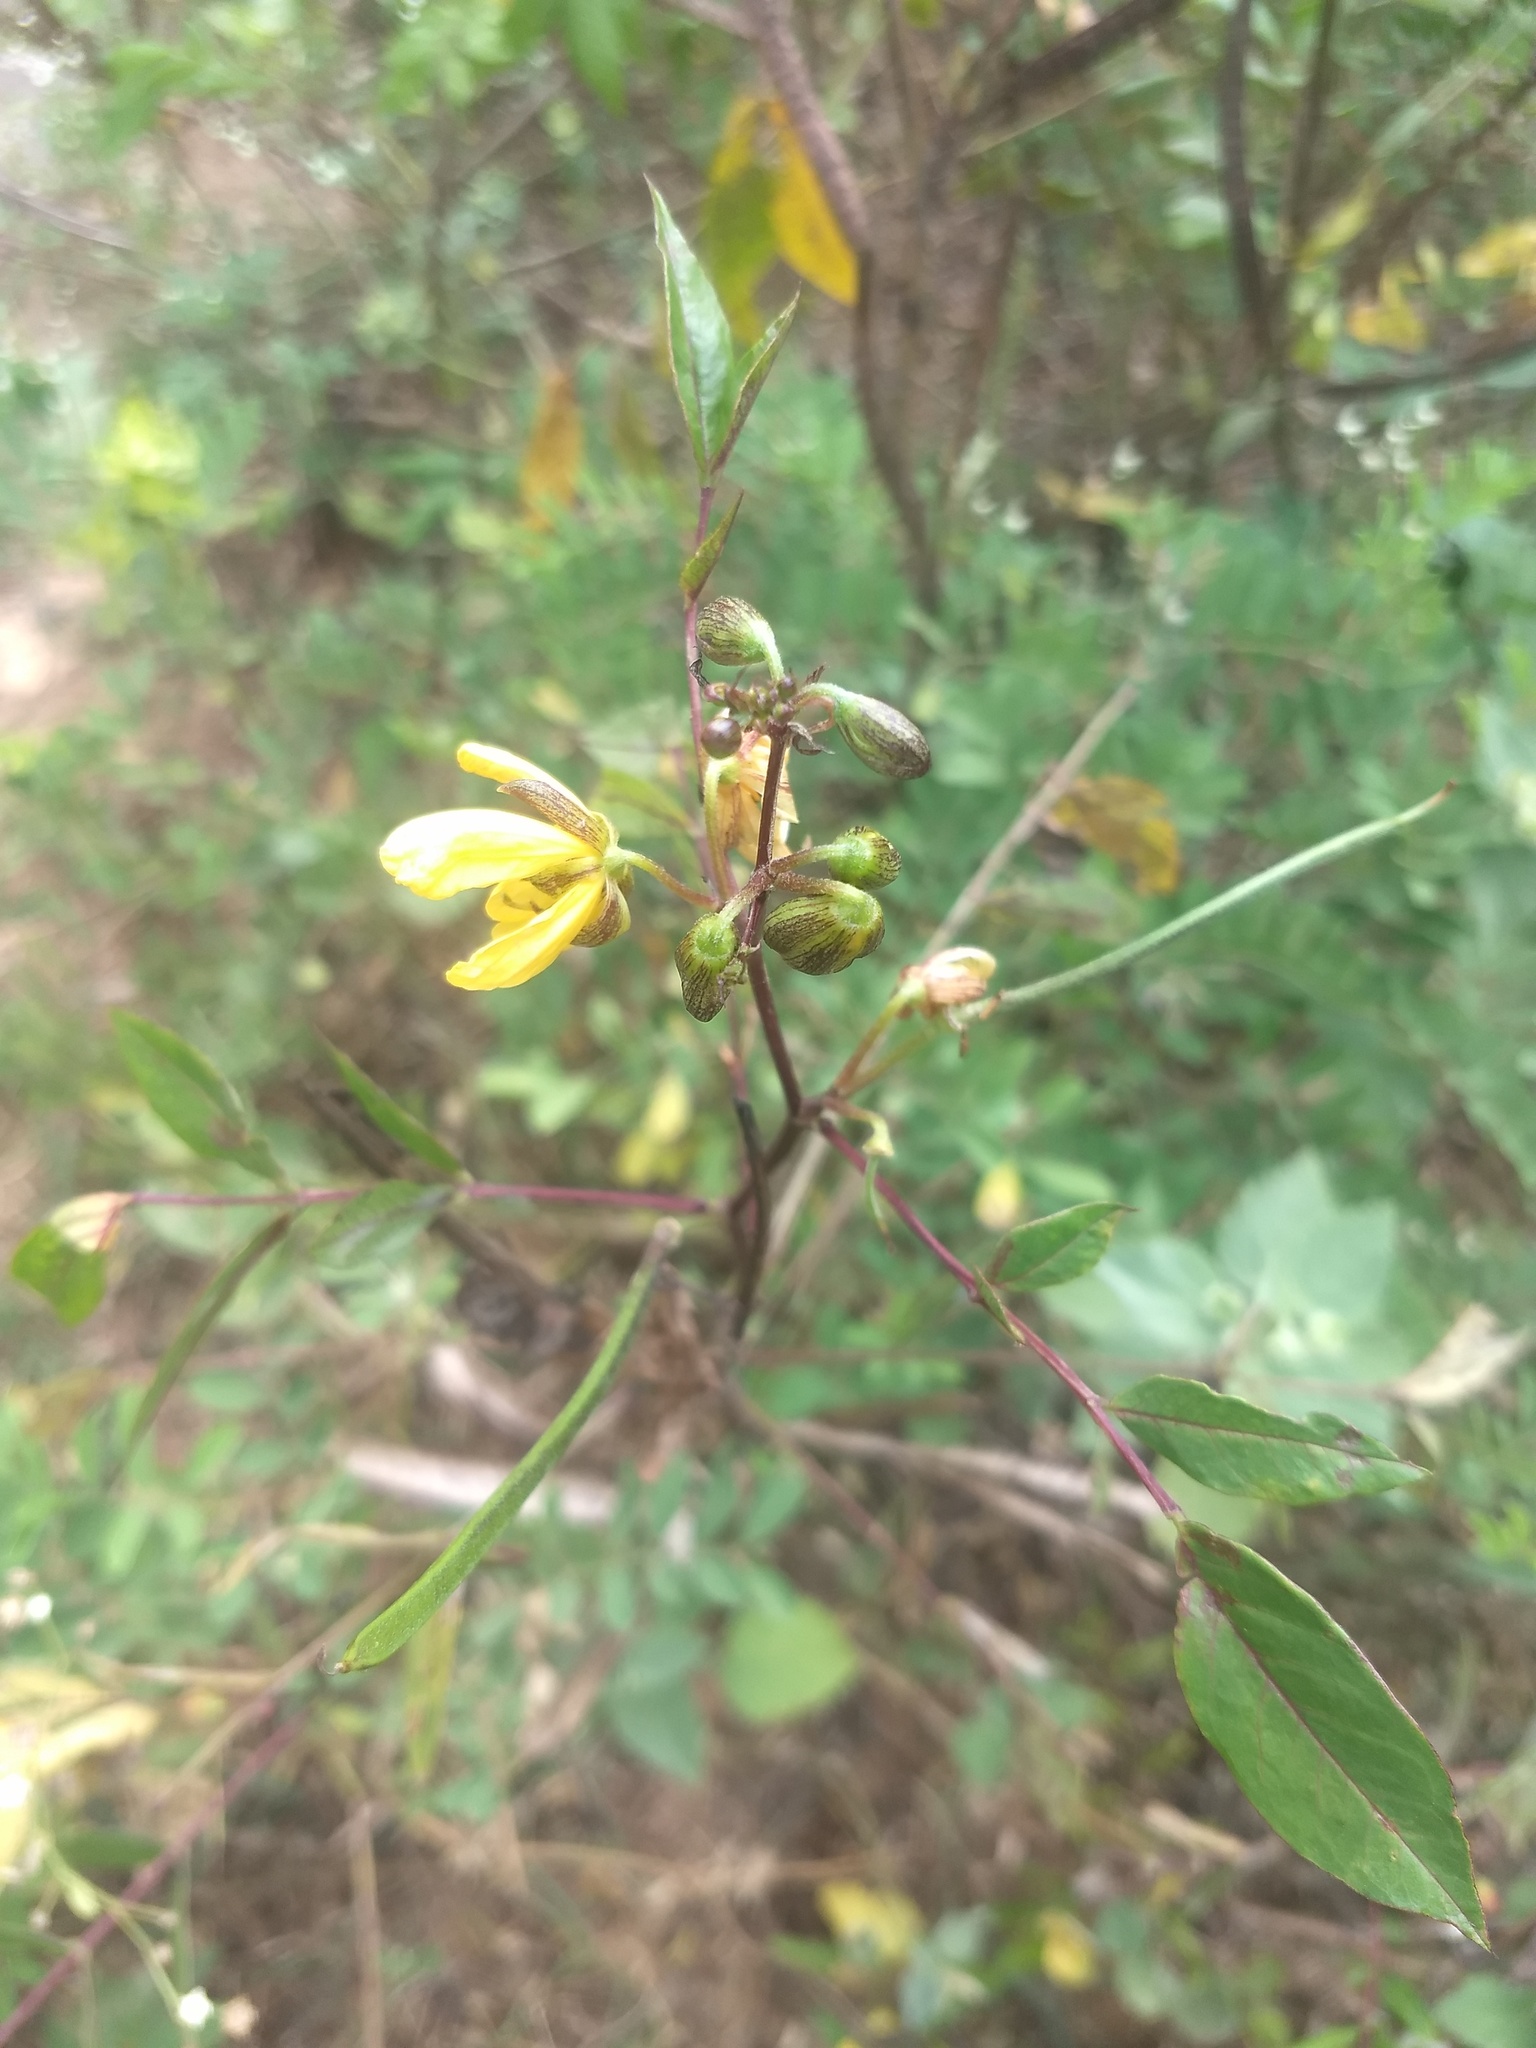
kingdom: Plantae
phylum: Tracheophyta
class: Magnoliopsida
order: Fabales
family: Fabaceae
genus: Senna
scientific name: Senna occidentalis
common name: Septicweed
